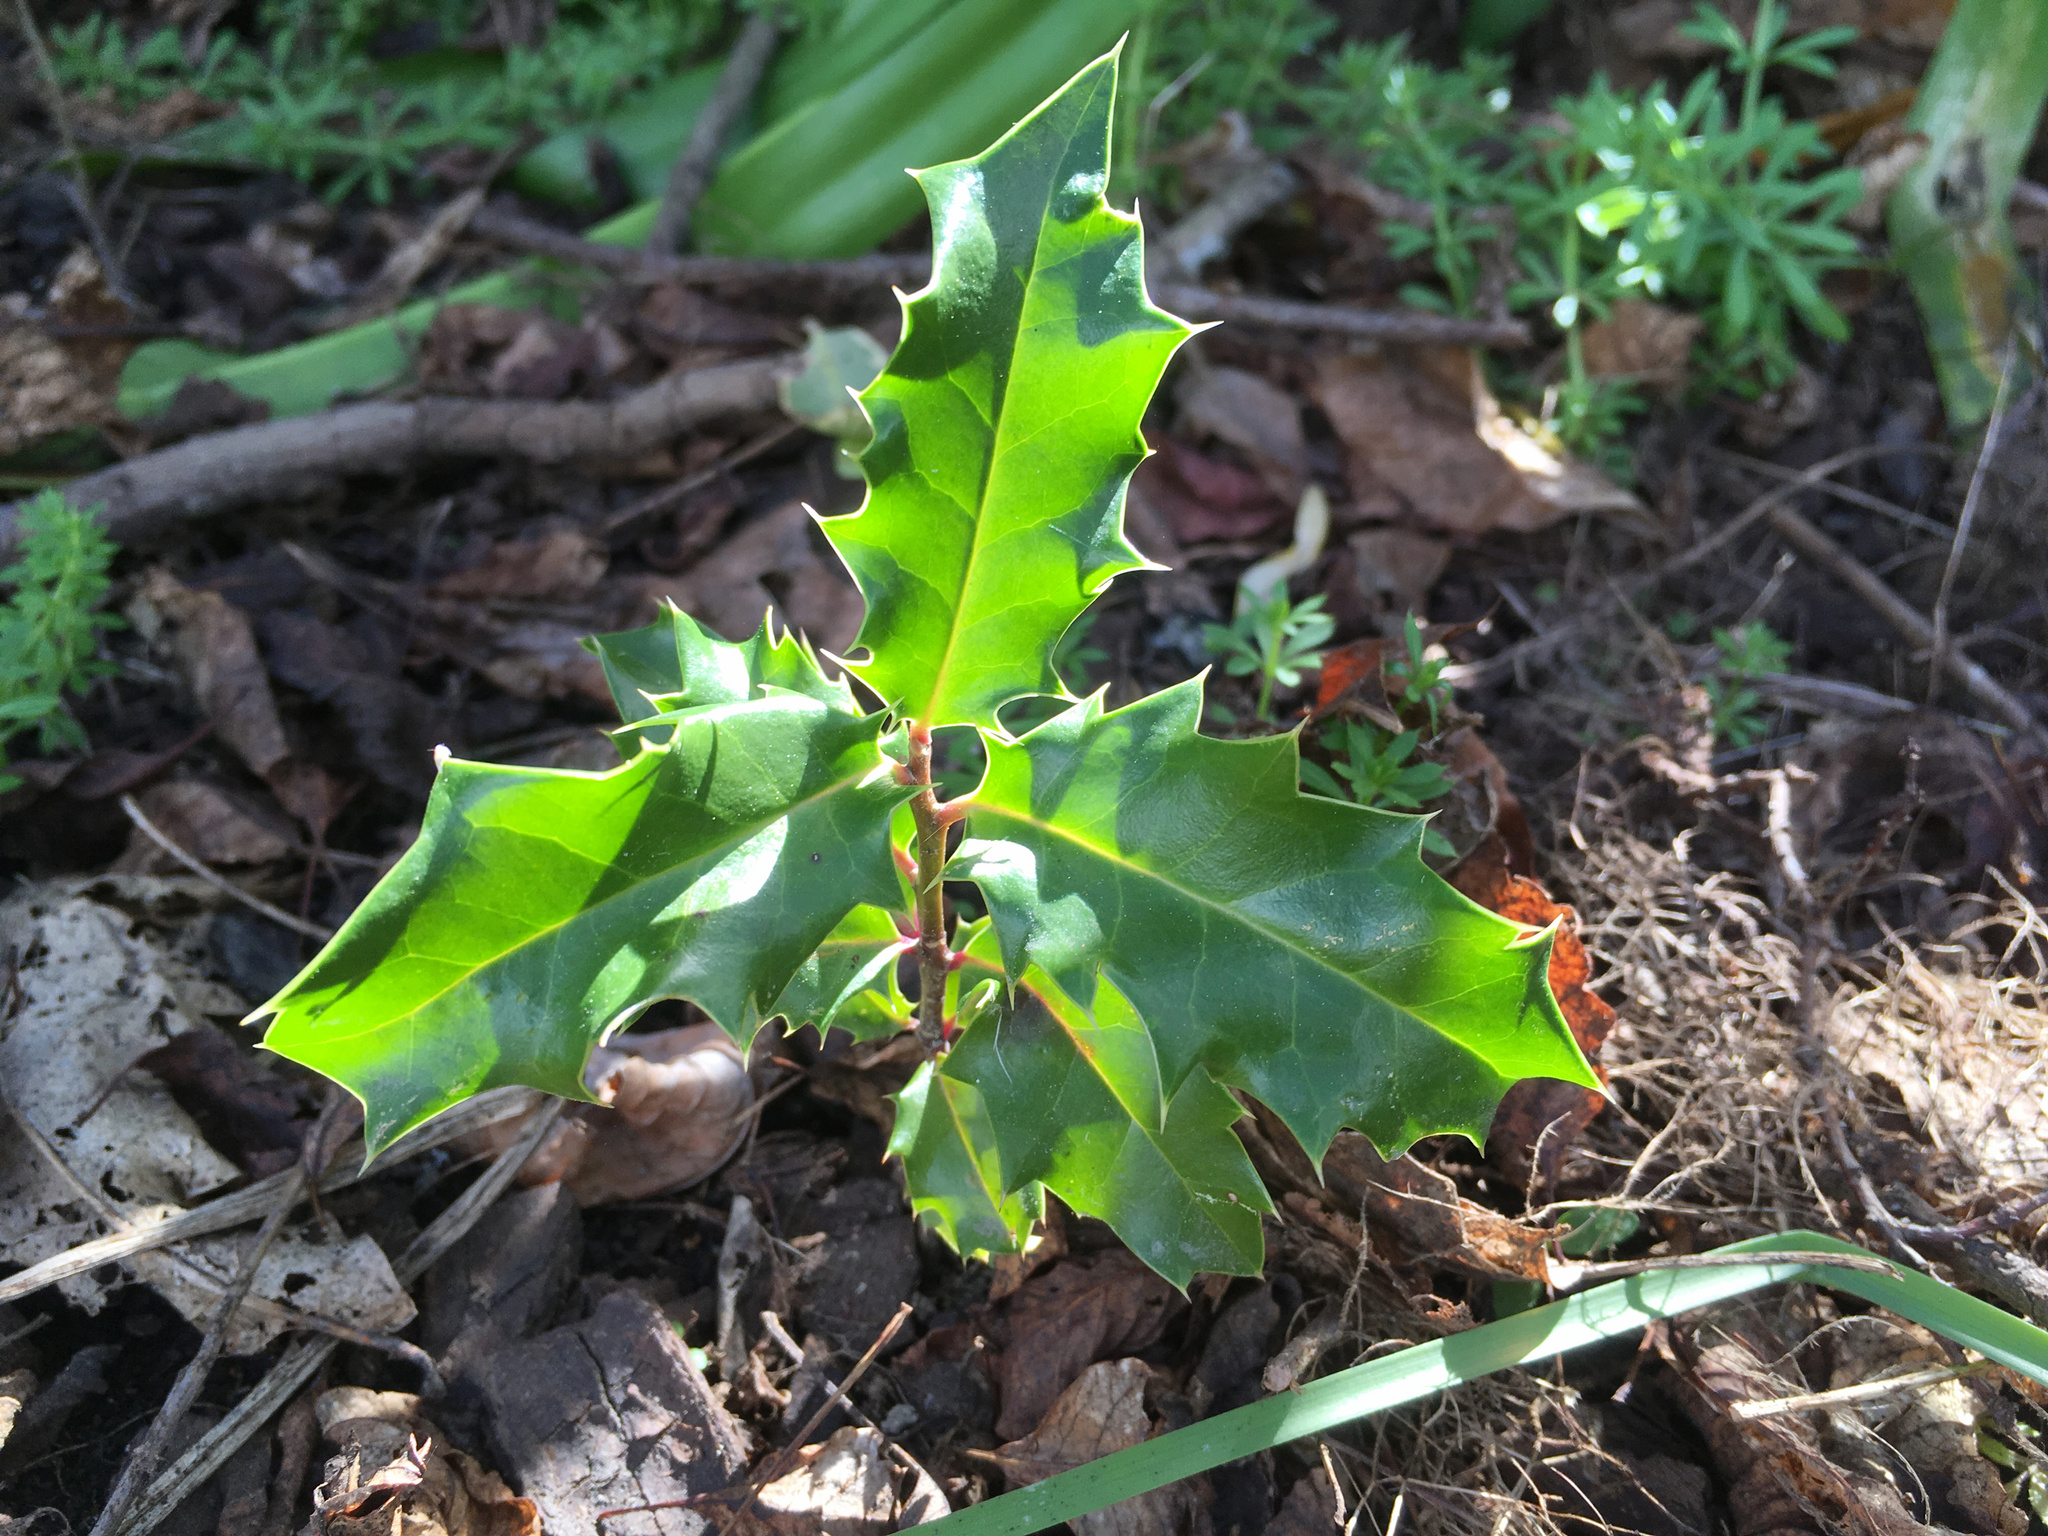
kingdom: Plantae
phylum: Tracheophyta
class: Magnoliopsida
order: Aquifoliales
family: Aquifoliaceae
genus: Ilex
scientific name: Ilex aquifolium
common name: English holly
